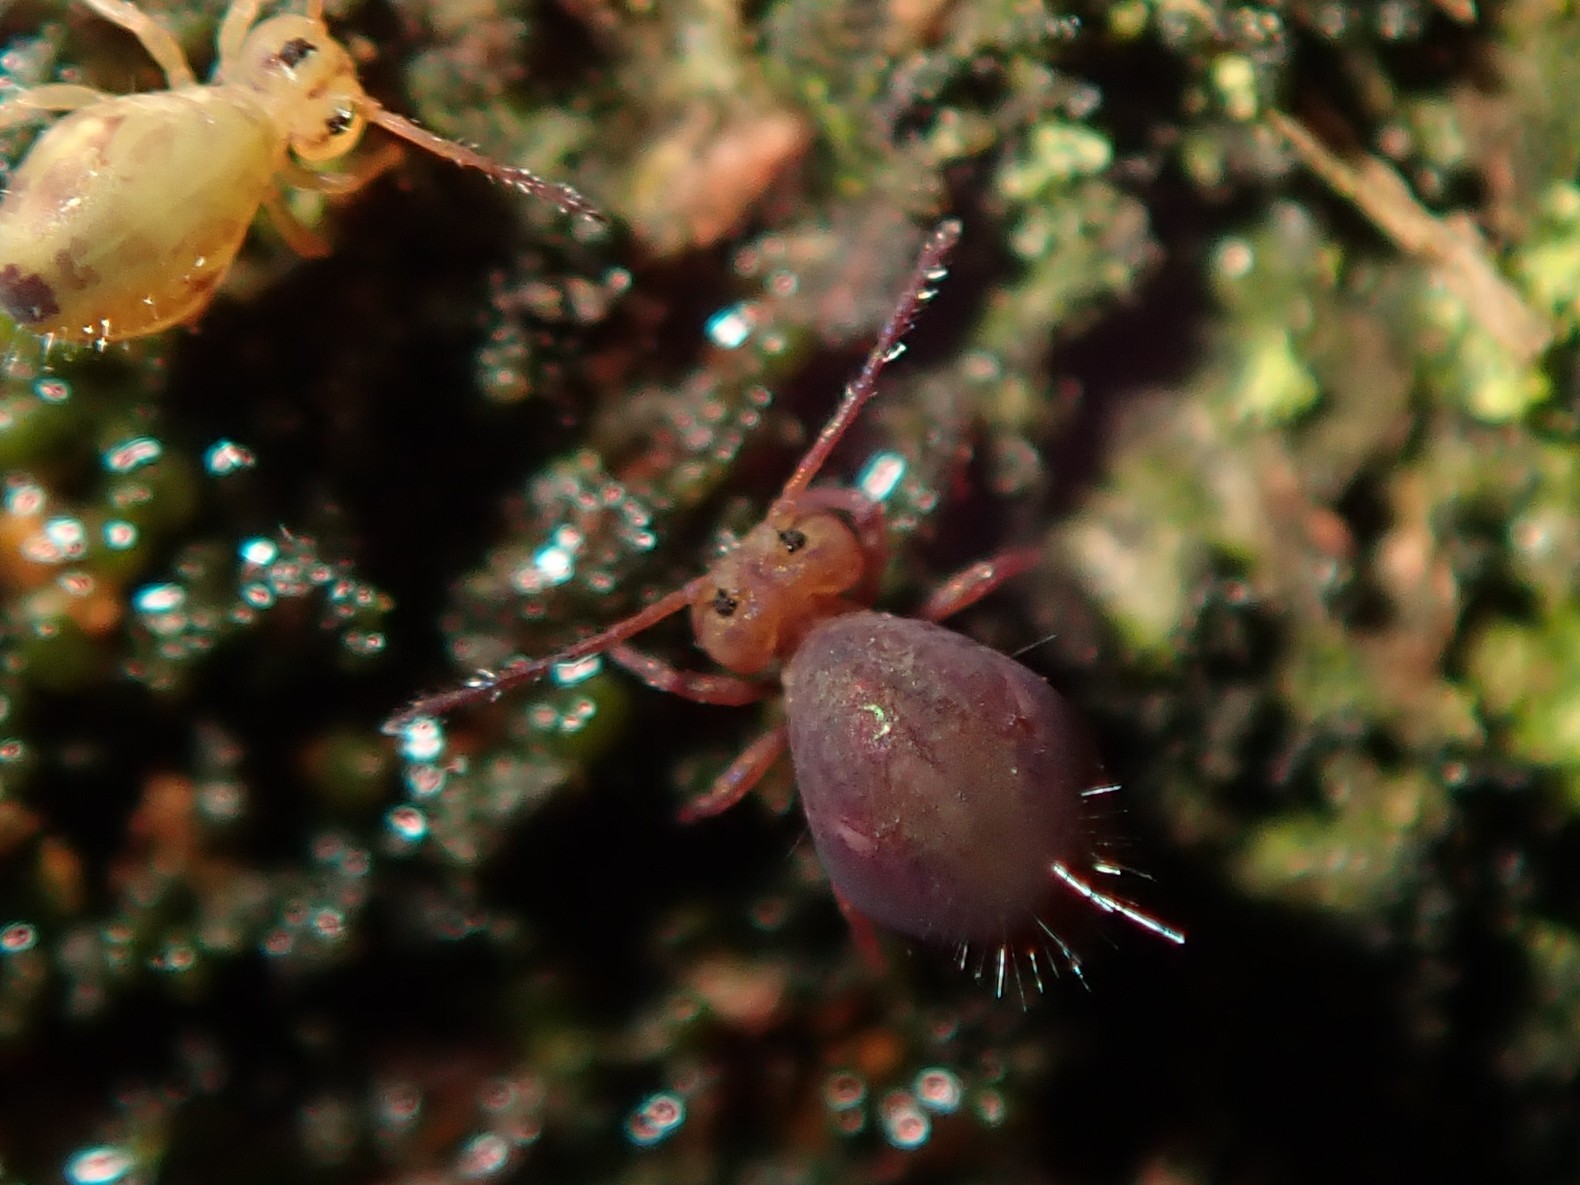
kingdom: Animalia
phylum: Arthropoda
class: Collembola
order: Symphypleona
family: Dicyrtomidae
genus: Dicyrtoma
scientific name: Dicyrtoma fusca
